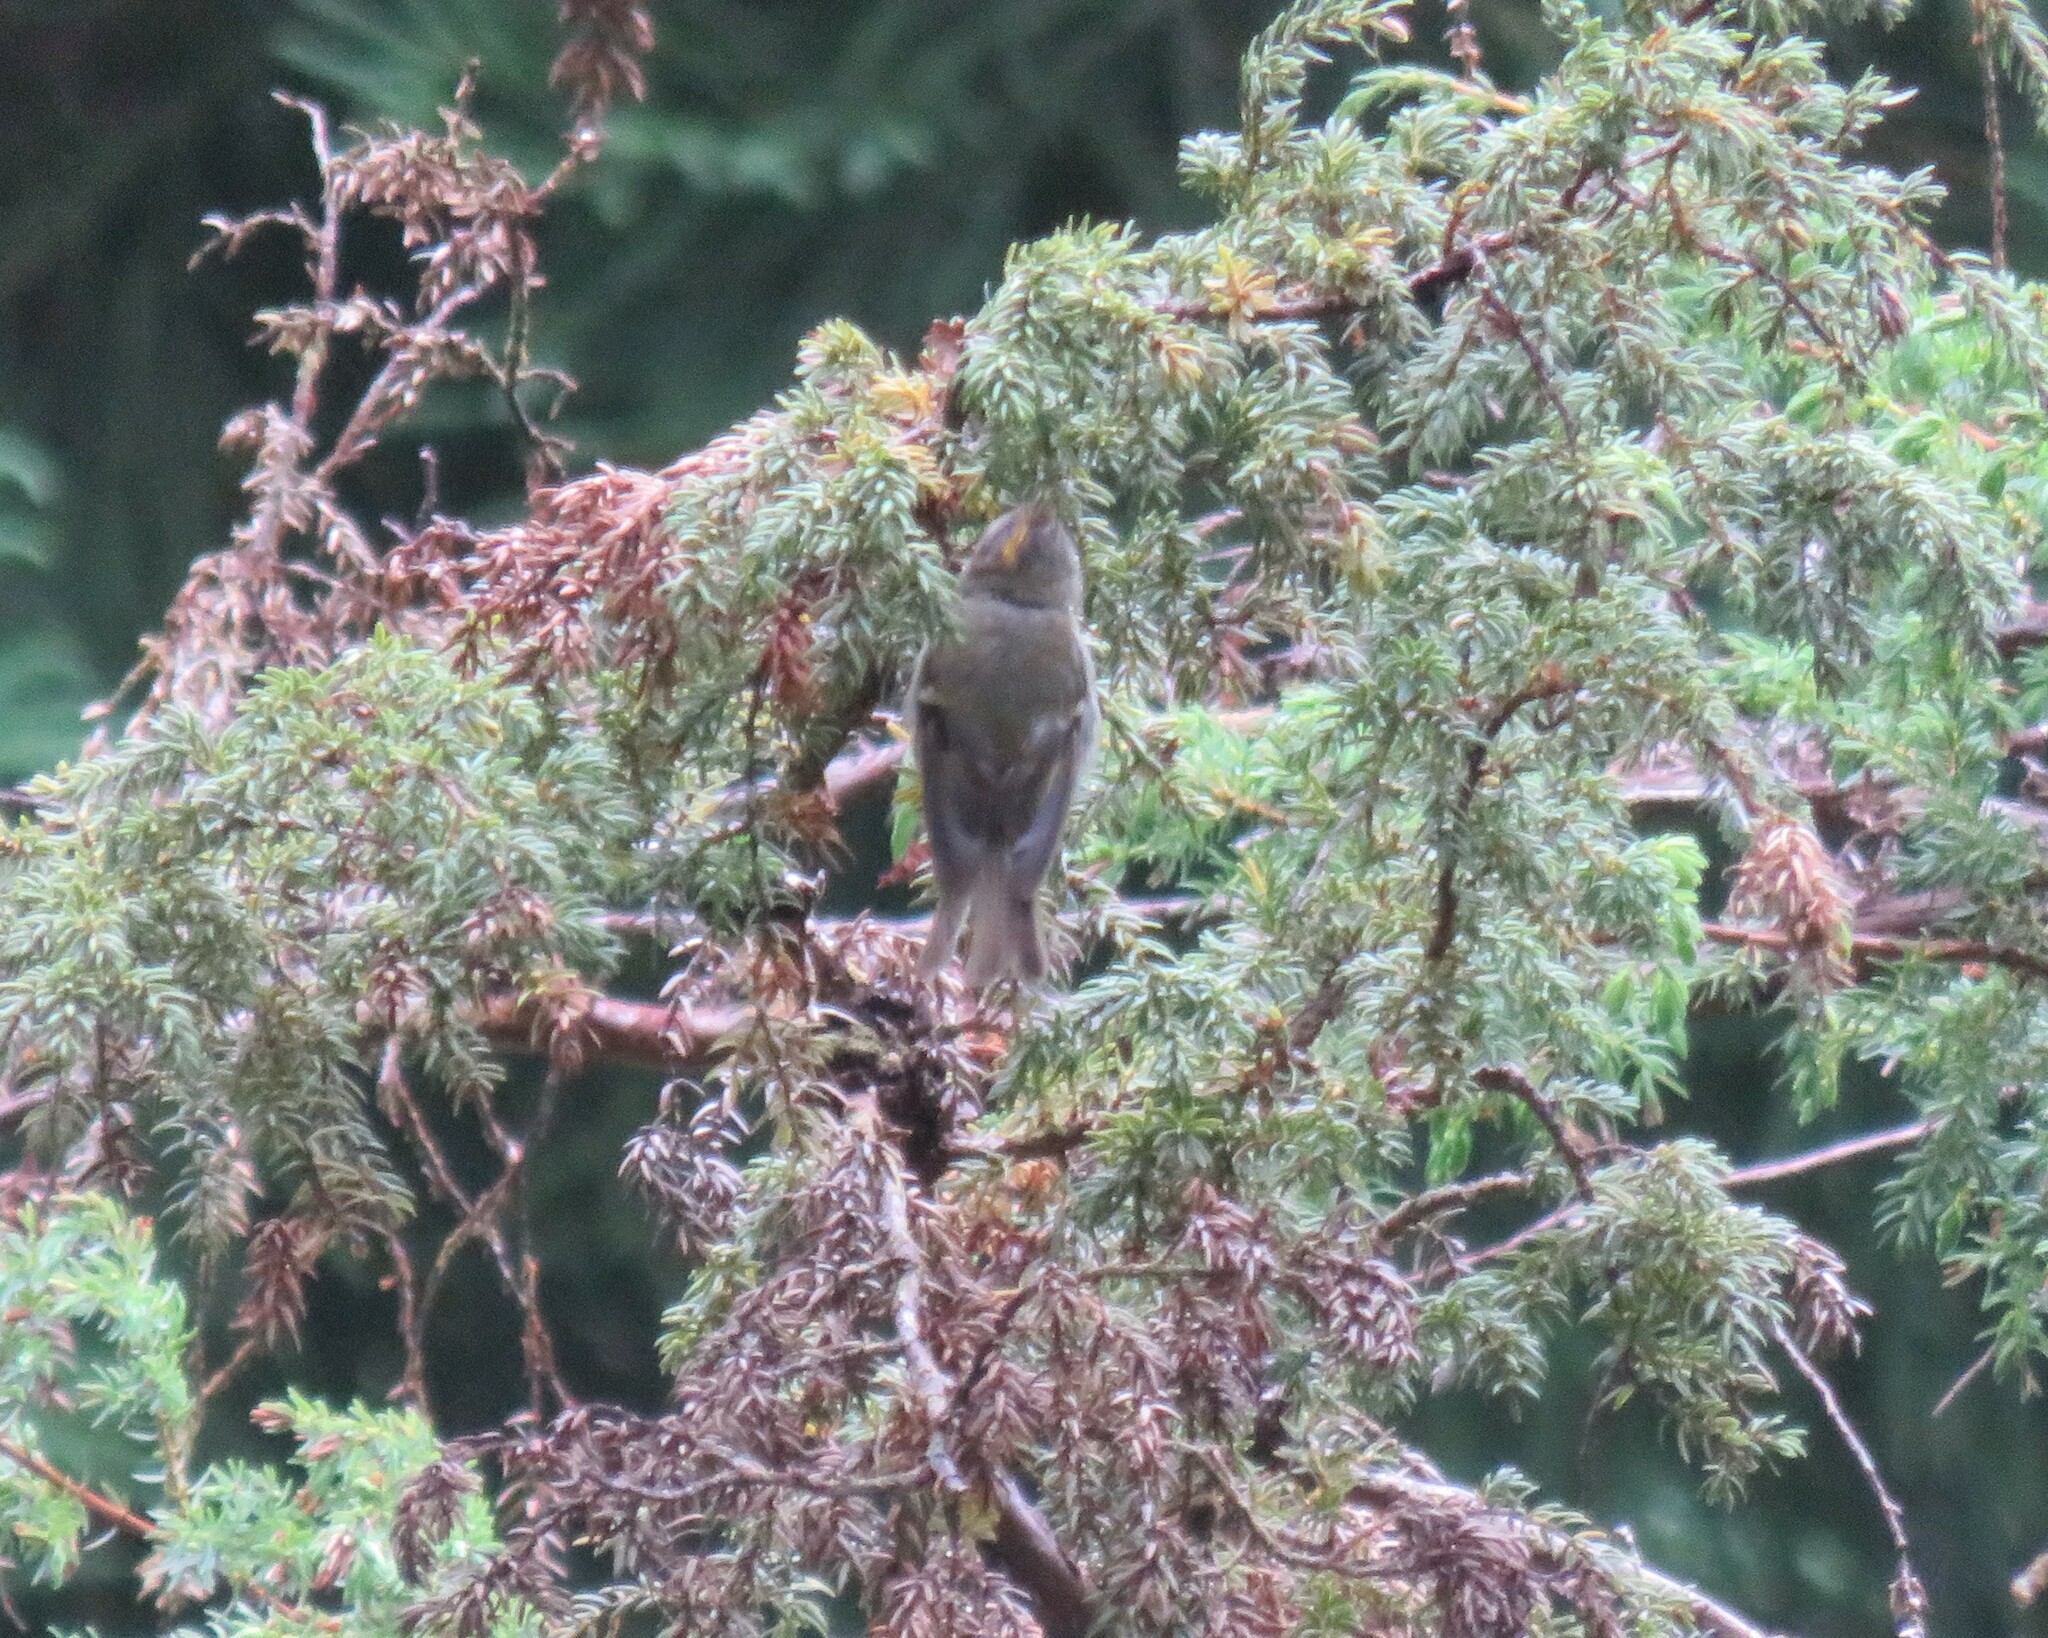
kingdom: Animalia
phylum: Chordata
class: Aves
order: Passeriformes
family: Regulidae
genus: Regulus
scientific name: Regulus regulus
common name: Goldcrest
